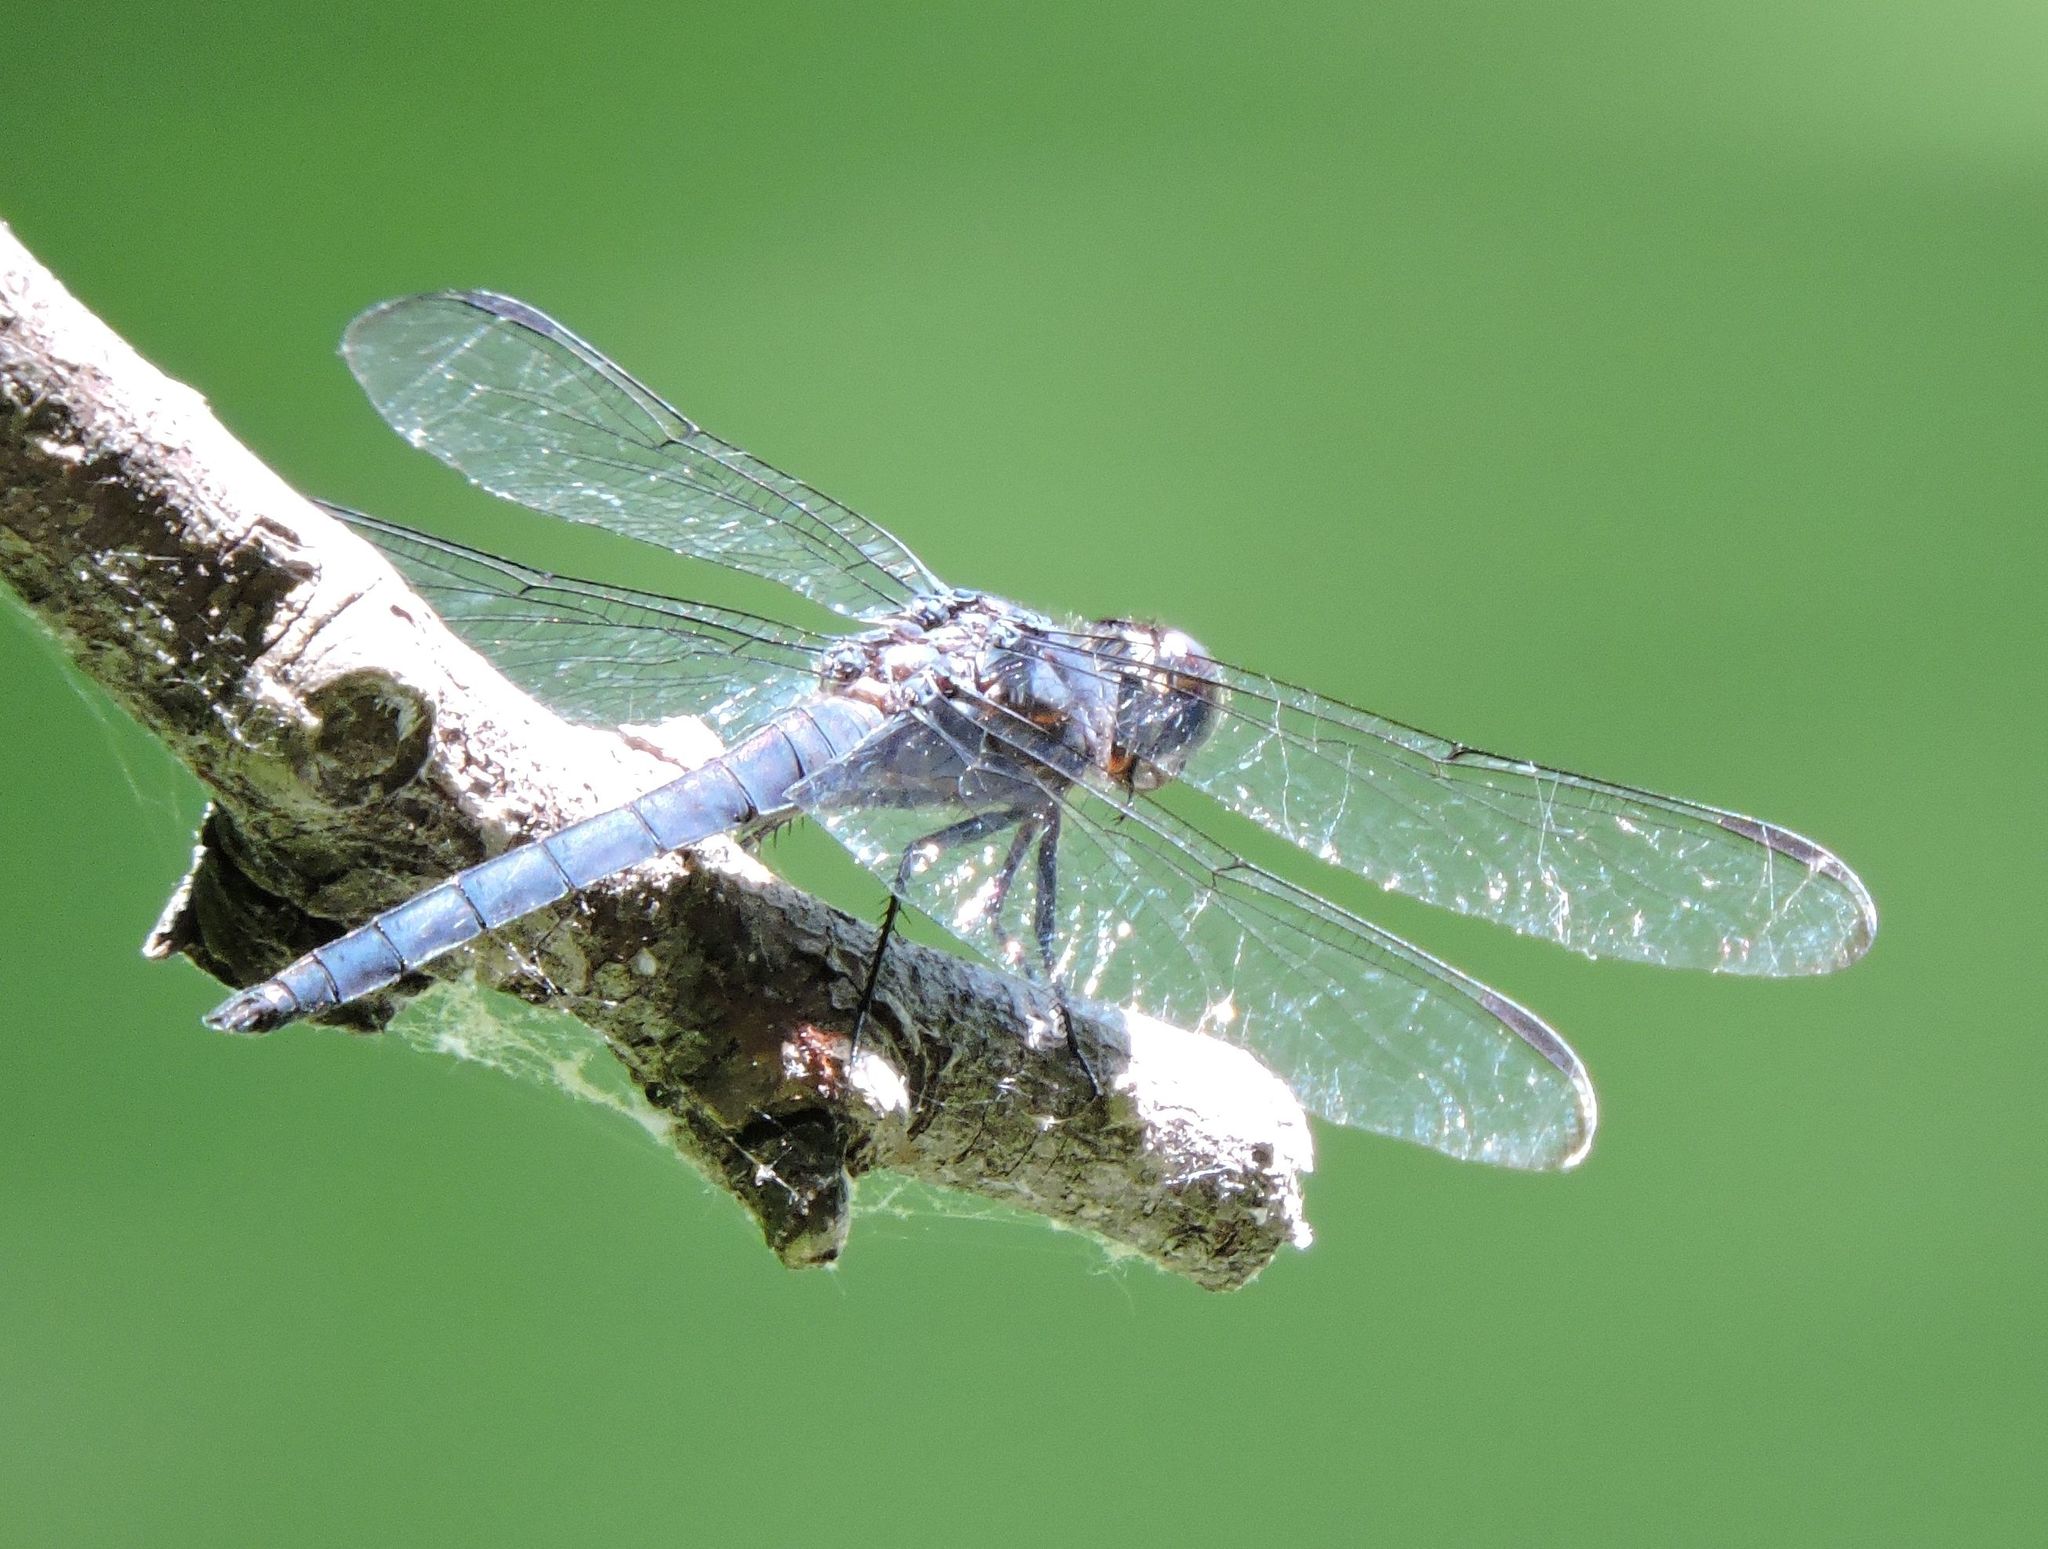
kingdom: Animalia
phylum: Arthropoda
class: Insecta
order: Odonata
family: Libellulidae
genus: Libellula
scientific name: Libellula incesta
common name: Slaty skimmer
